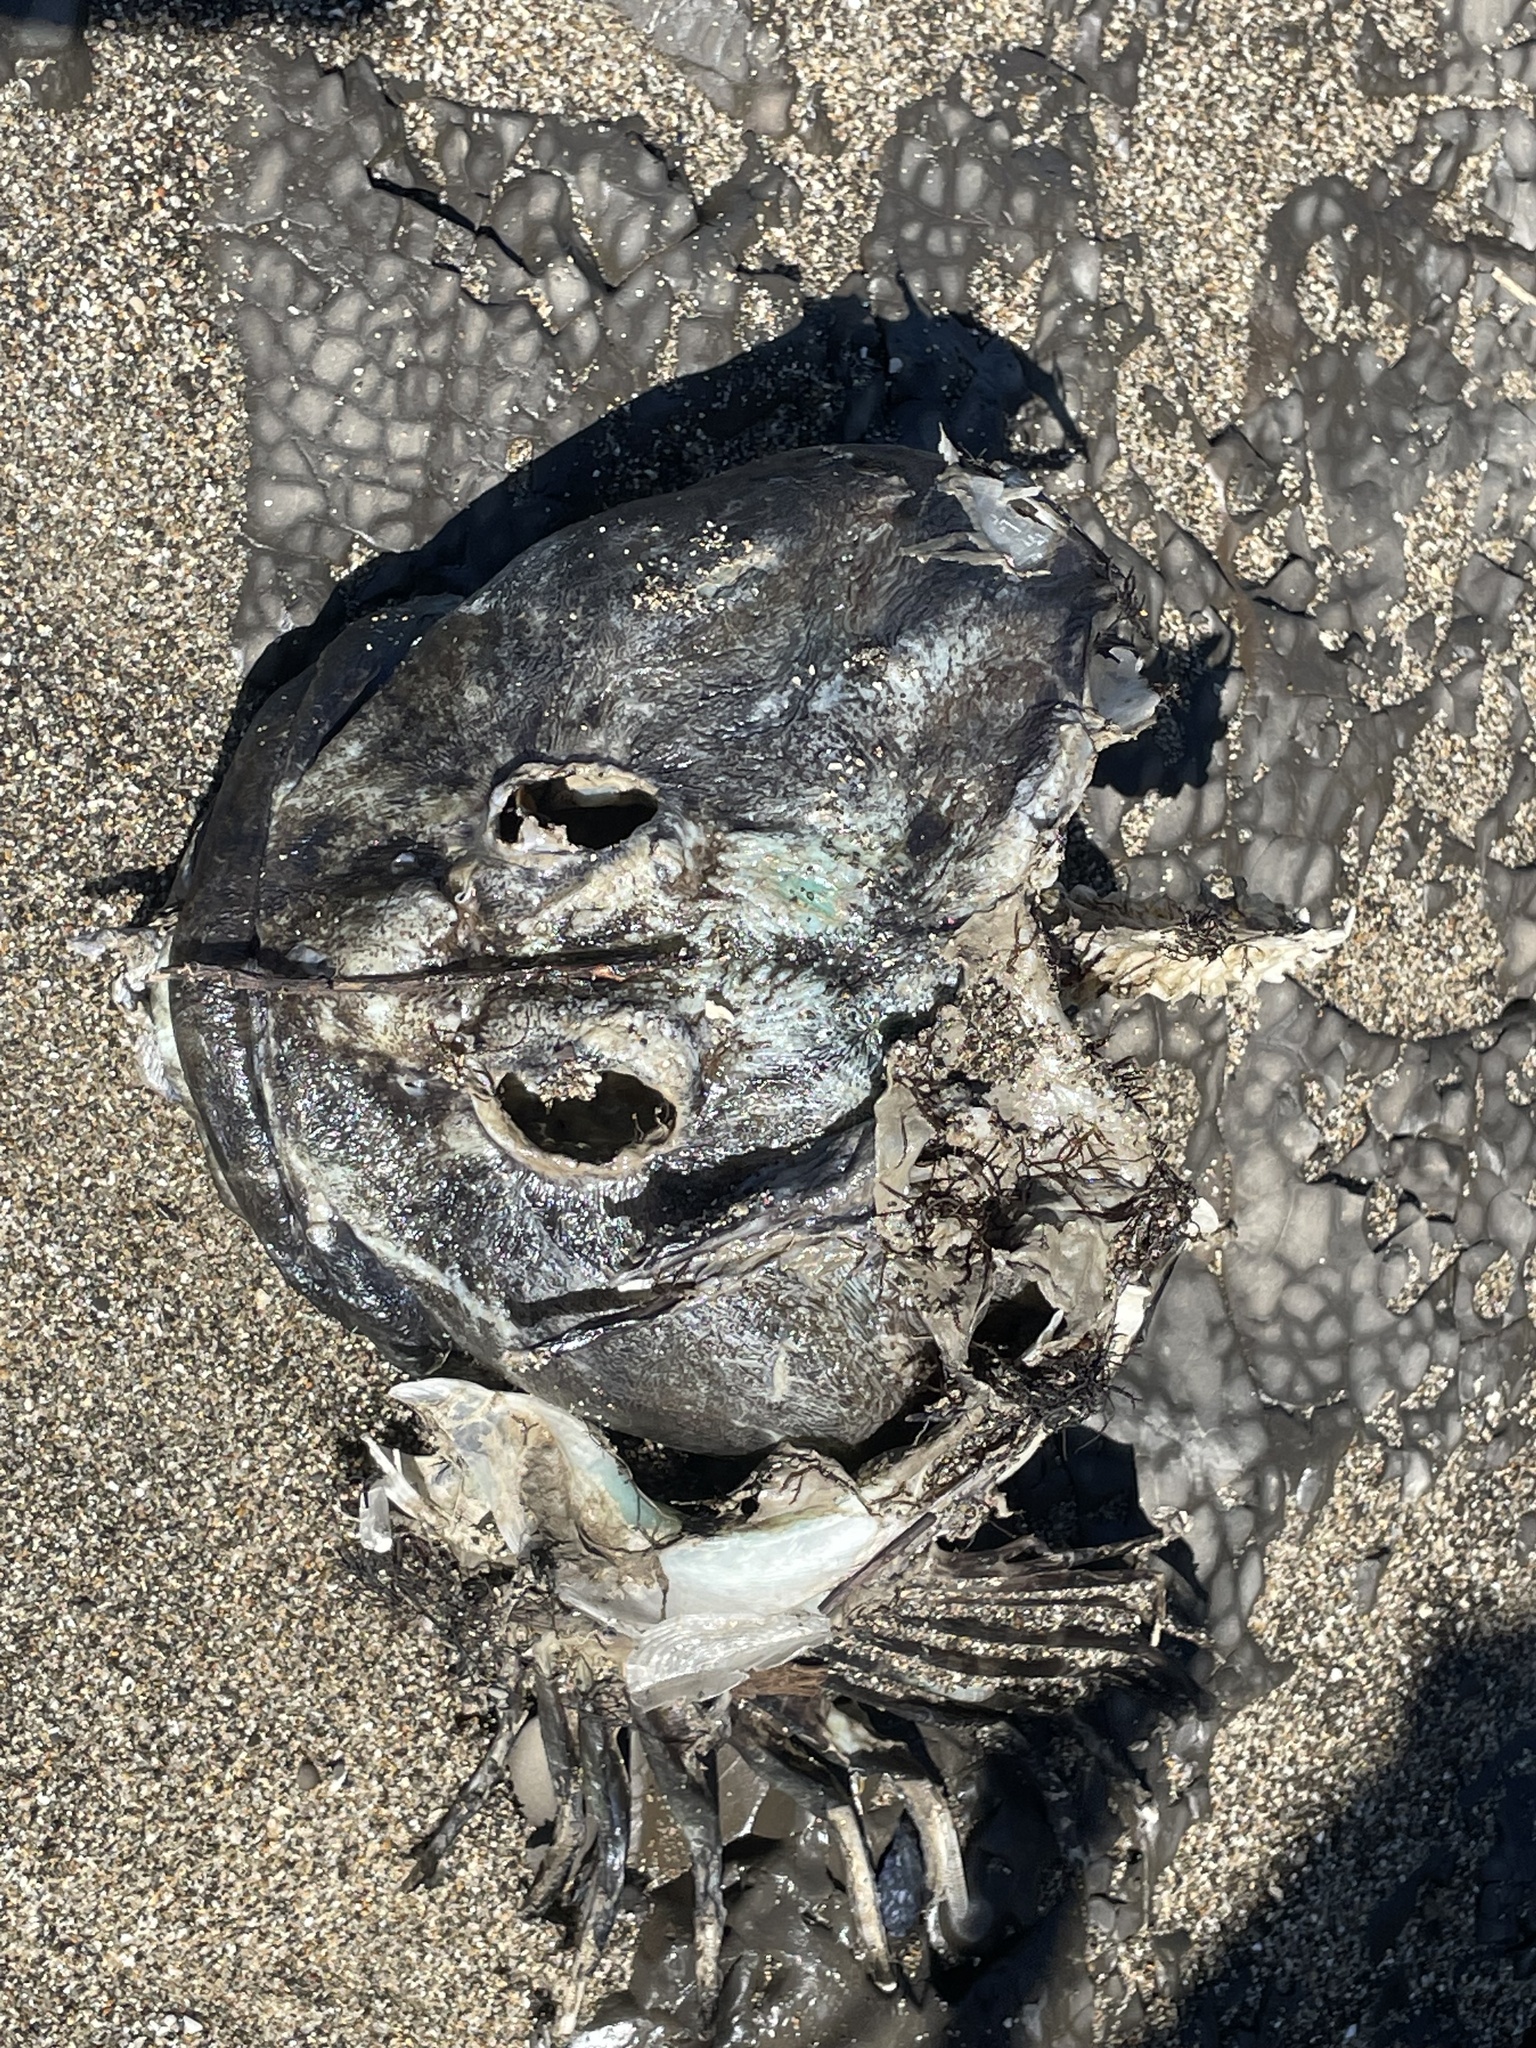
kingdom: Animalia
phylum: Chordata
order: Scorpaeniformes
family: Cottidae
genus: Scorpaenichthys
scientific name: Scorpaenichthys marmoratus
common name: Cabezon
